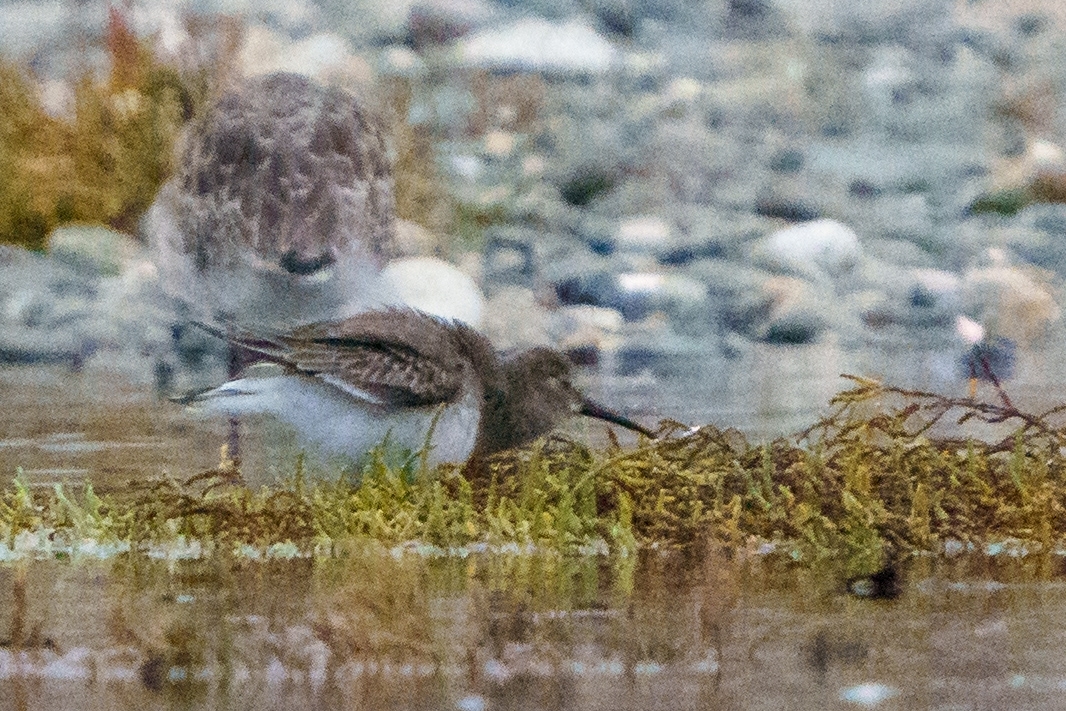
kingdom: Animalia
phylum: Chordata
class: Aves
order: Charadriiformes
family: Scolopacidae
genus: Calidris
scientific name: Calidris alpina
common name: Dunlin
